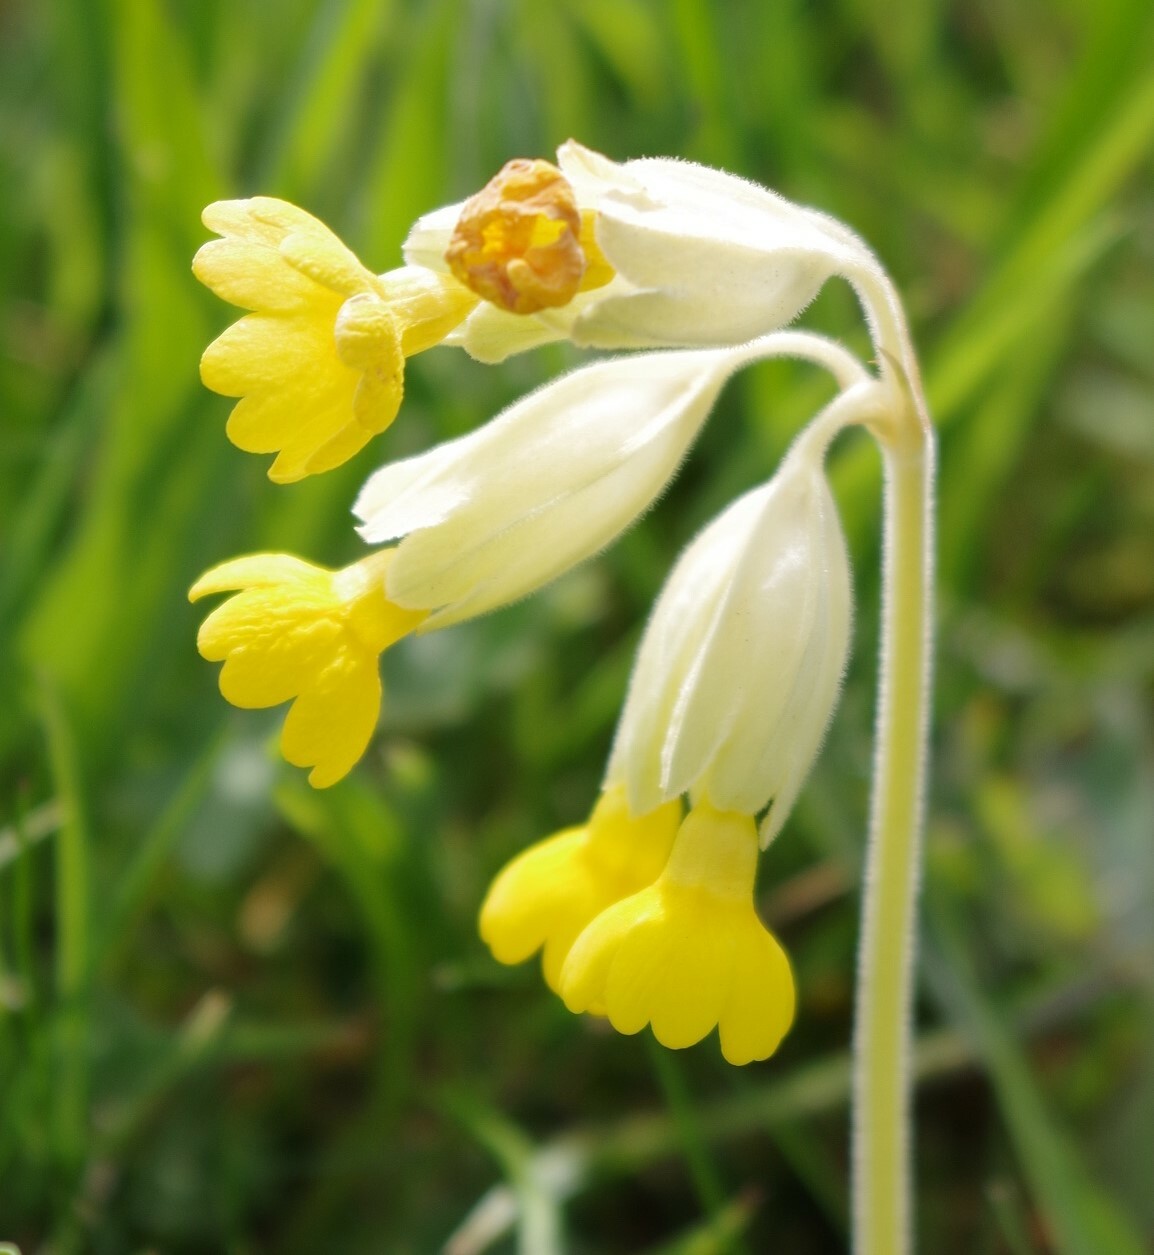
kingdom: Plantae
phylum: Tracheophyta
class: Magnoliopsida
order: Ericales
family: Primulaceae
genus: Primula
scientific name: Primula veris
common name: Cowslip
